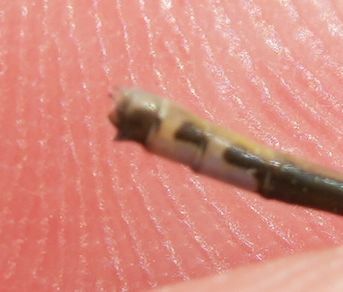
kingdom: Animalia
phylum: Arthropoda
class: Insecta
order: Odonata
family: Coenagrionidae
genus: Ischnura
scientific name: Ischnura verticalis
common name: Eastern forktail
